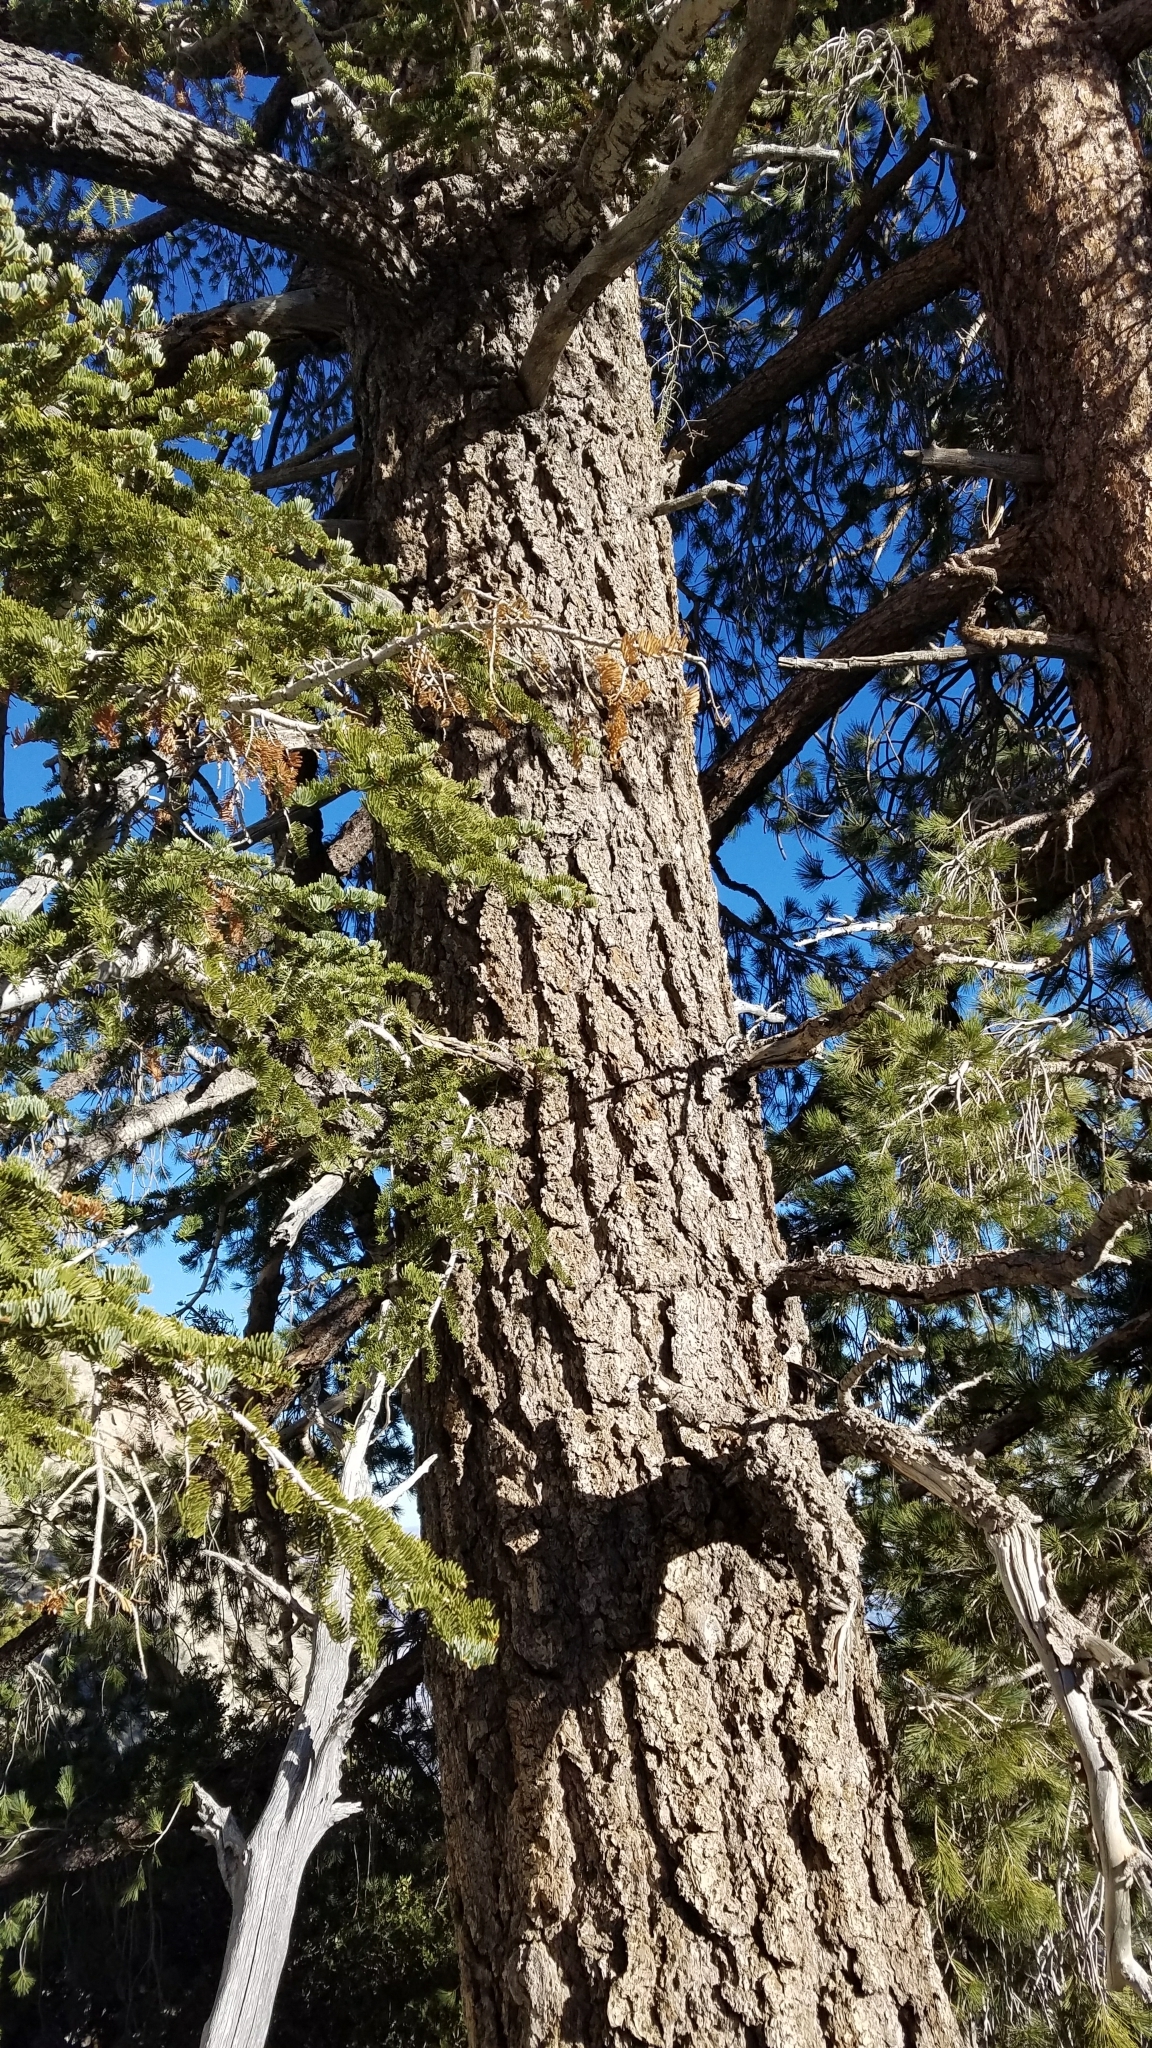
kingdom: Plantae
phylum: Tracheophyta
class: Pinopsida
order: Pinales
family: Pinaceae
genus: Abies
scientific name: Abies concolor
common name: Colorado fir
